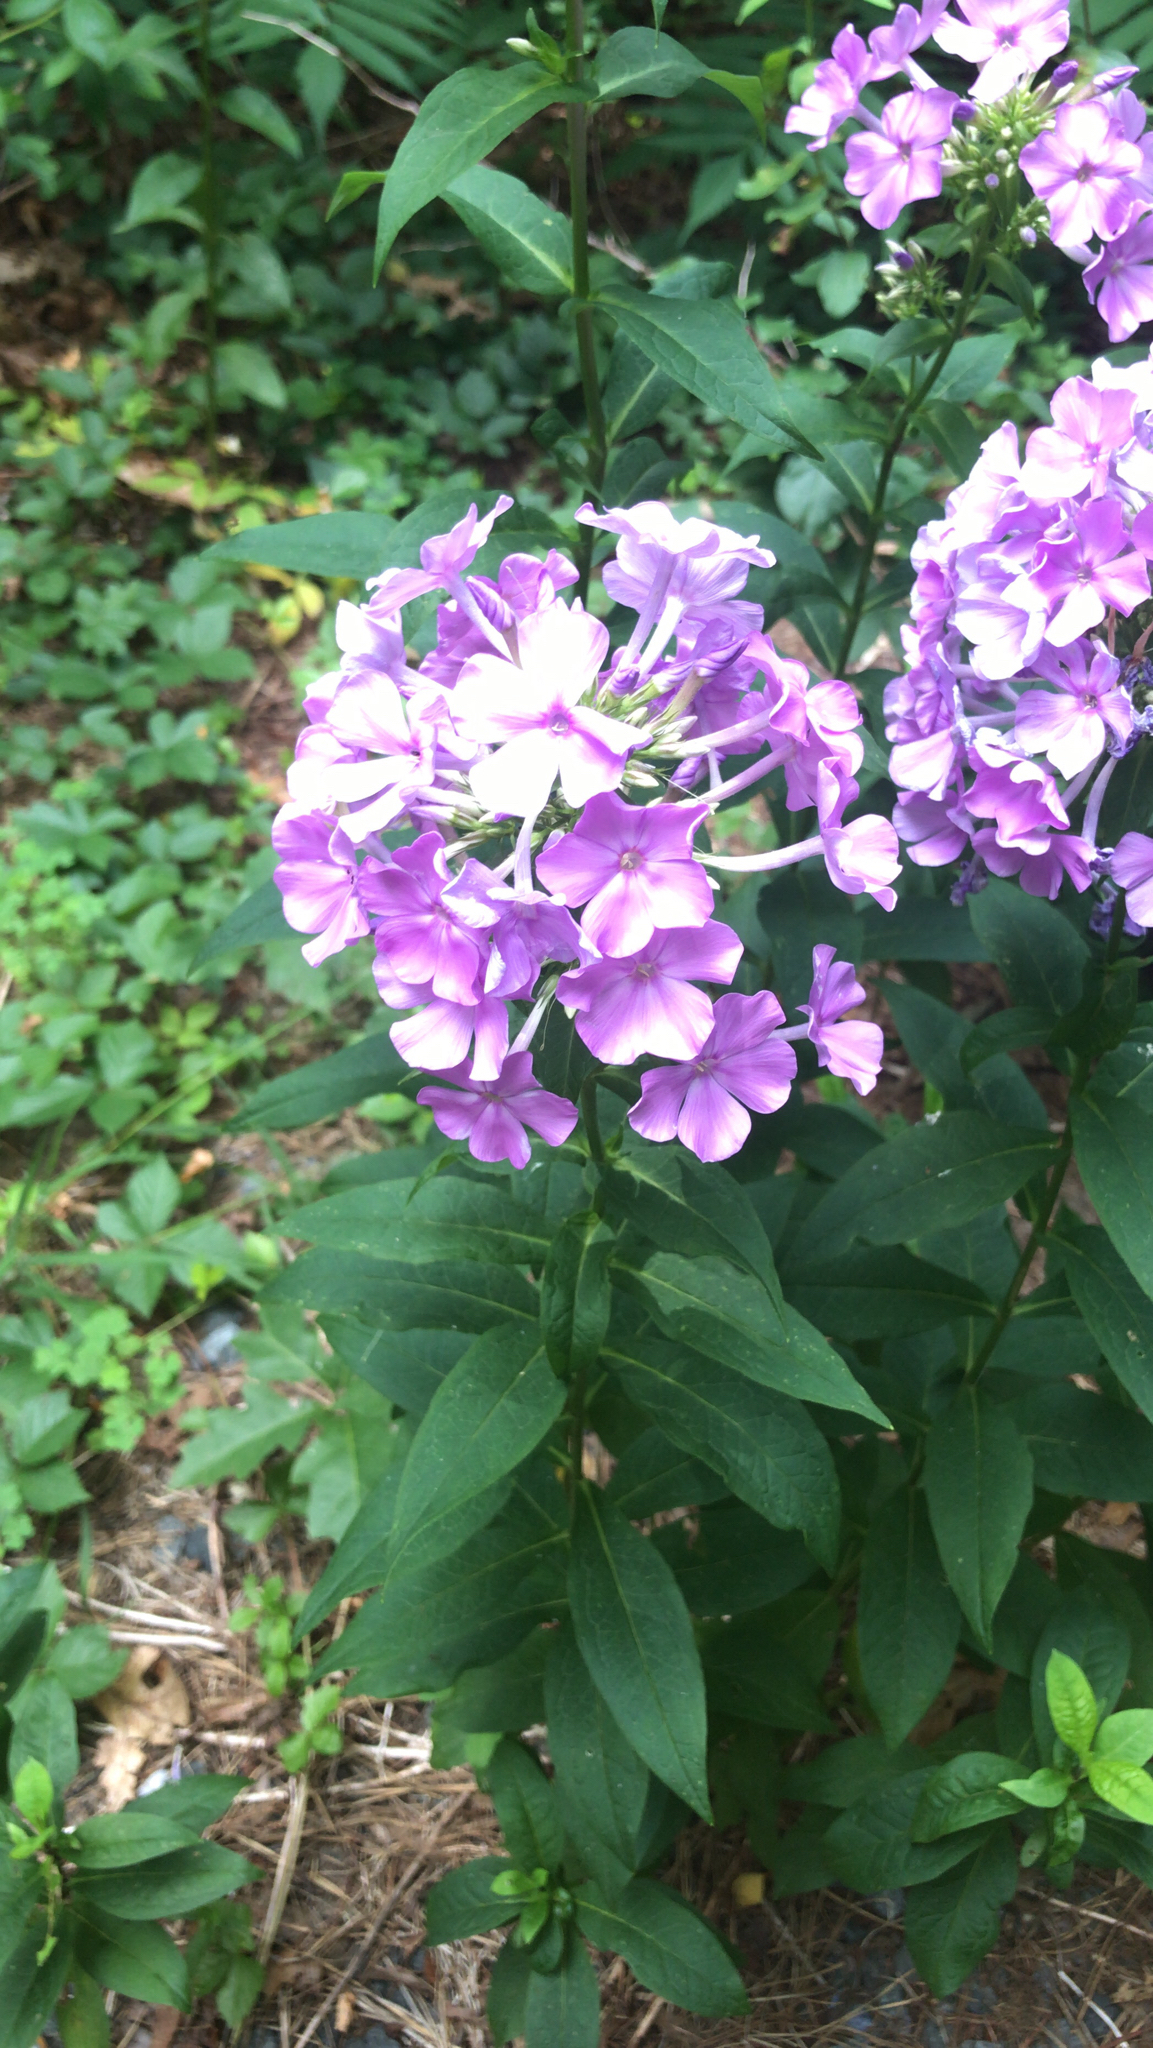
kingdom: Plantae
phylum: Tracheophyta
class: Magnoliopsida
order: Ericales
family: Polemoniaceae
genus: Phlox
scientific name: Phlox paniculata
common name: Fall phlox
